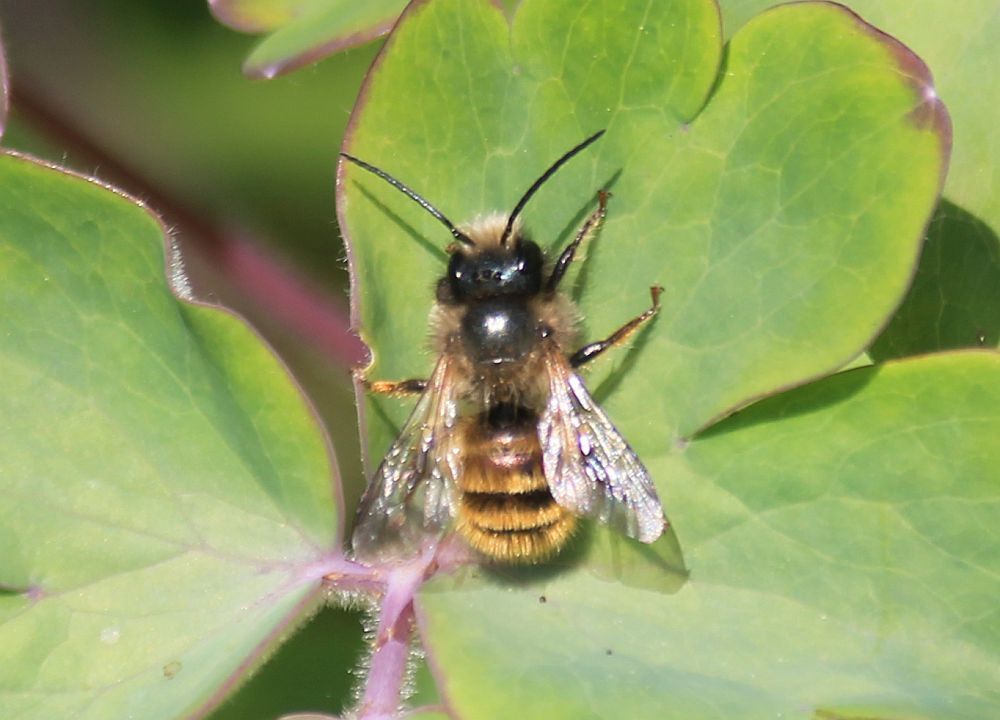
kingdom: Animalia
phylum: Arthropoda
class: Insecta
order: Hymenoptera
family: Megachilidae
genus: Osmia
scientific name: Osmia bicornis
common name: Red mason bee
